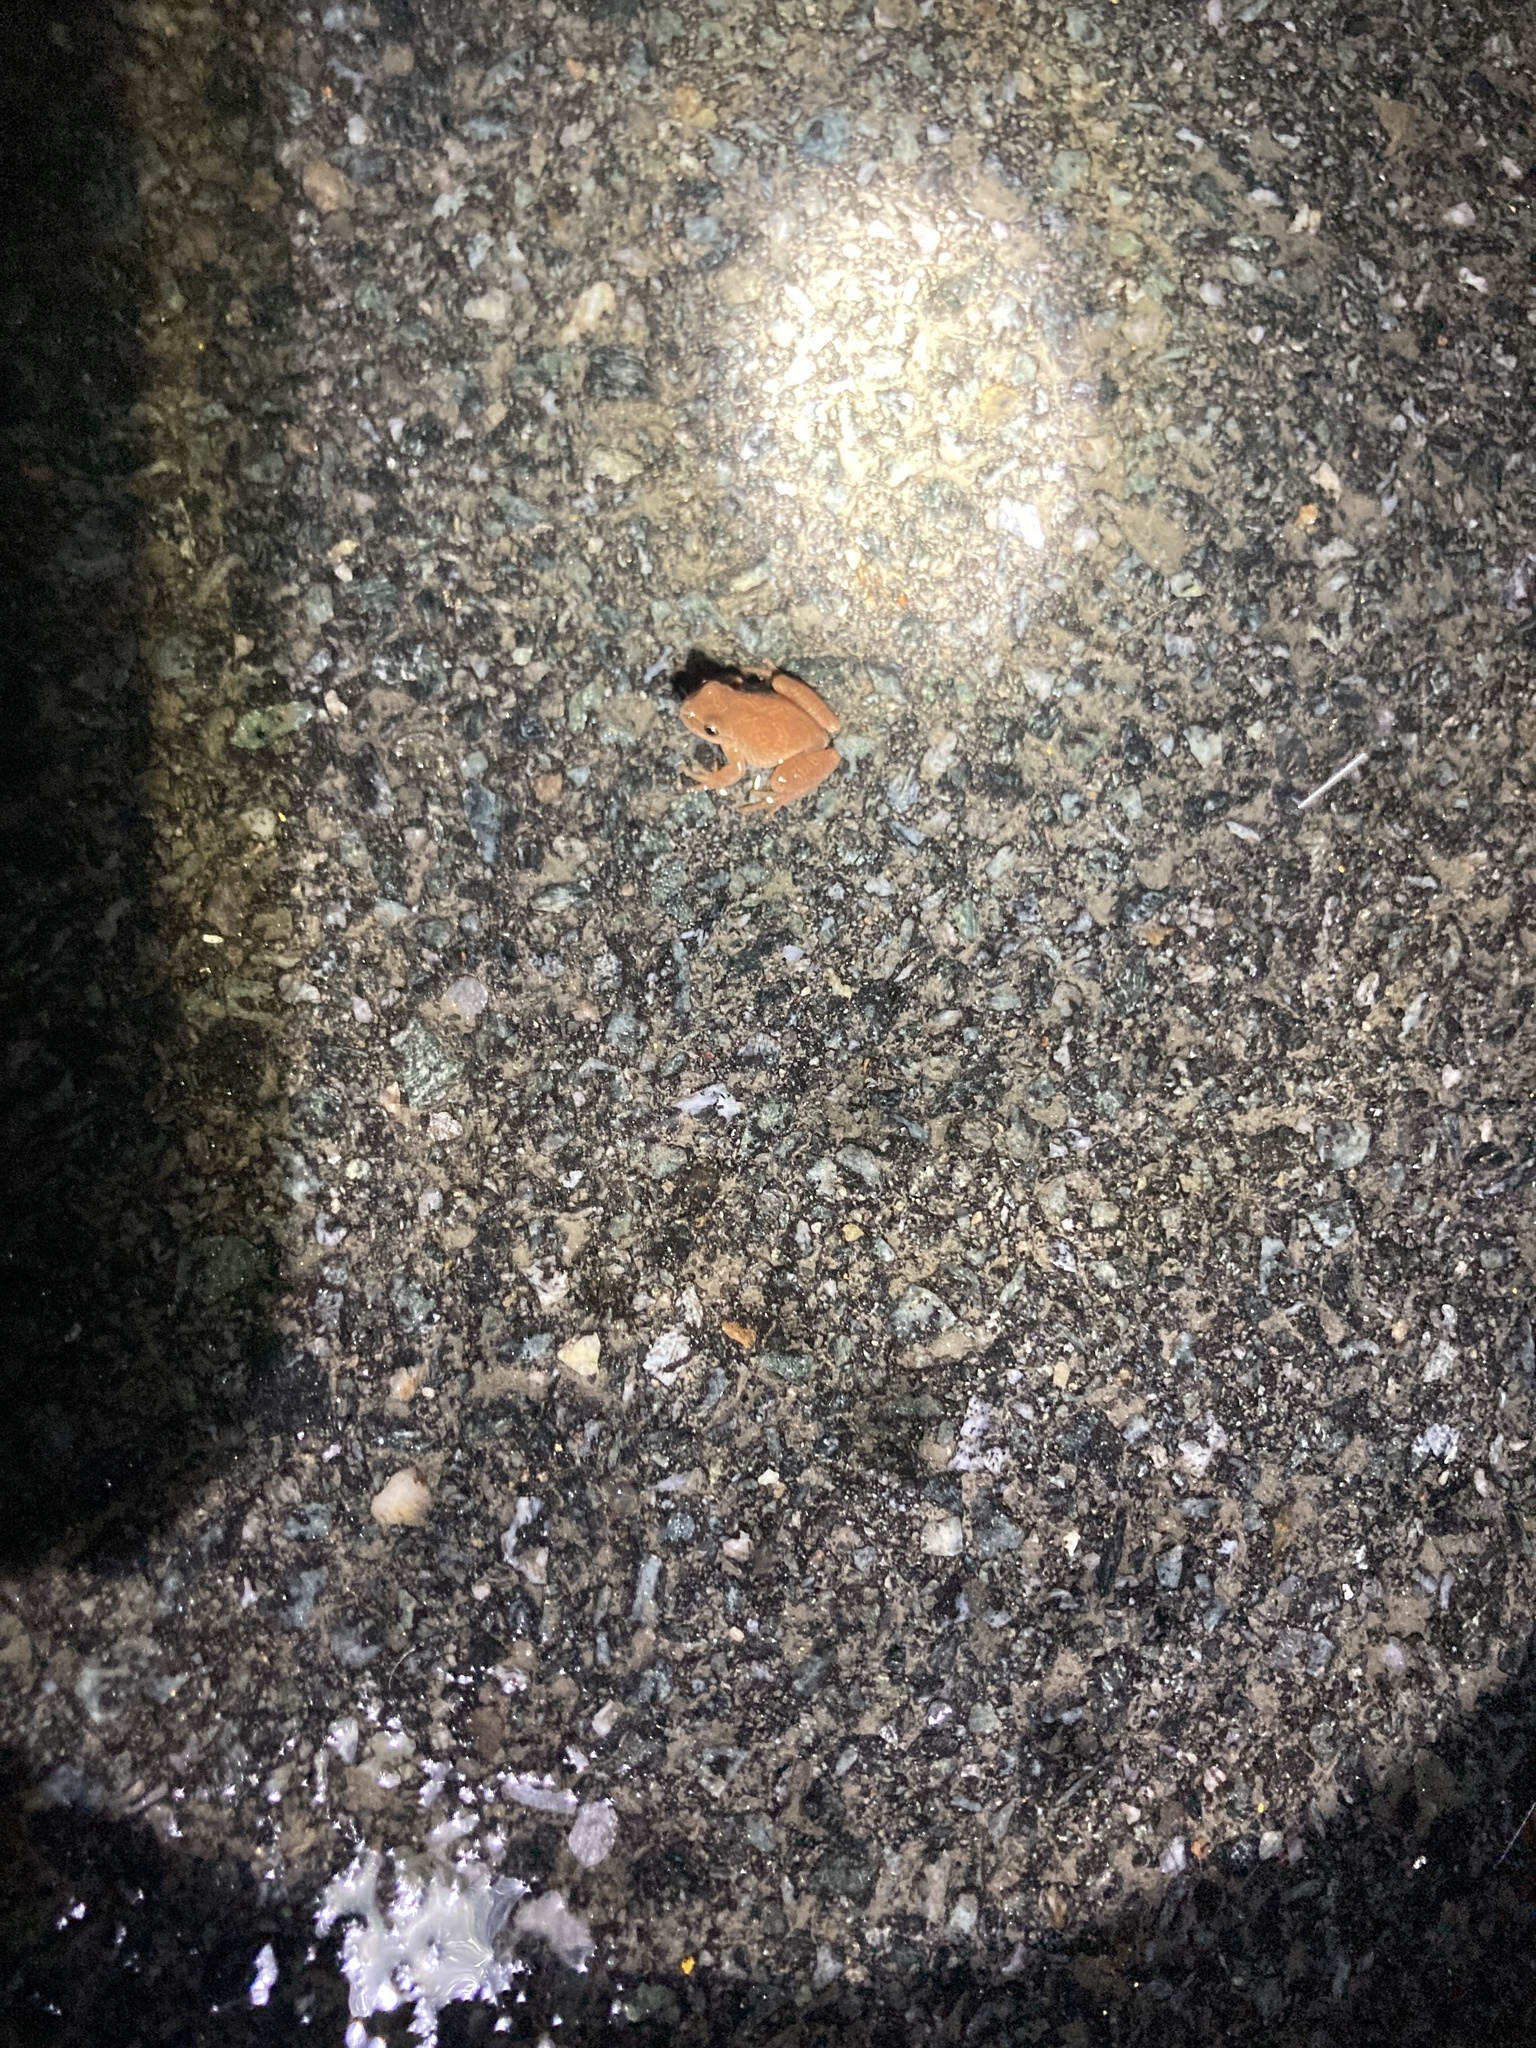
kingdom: Animalia
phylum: Chordata
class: Amphibia
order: Anura
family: Hylidae
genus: Pseudacris
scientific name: Pseudacris crucifer
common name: Spring peeper
